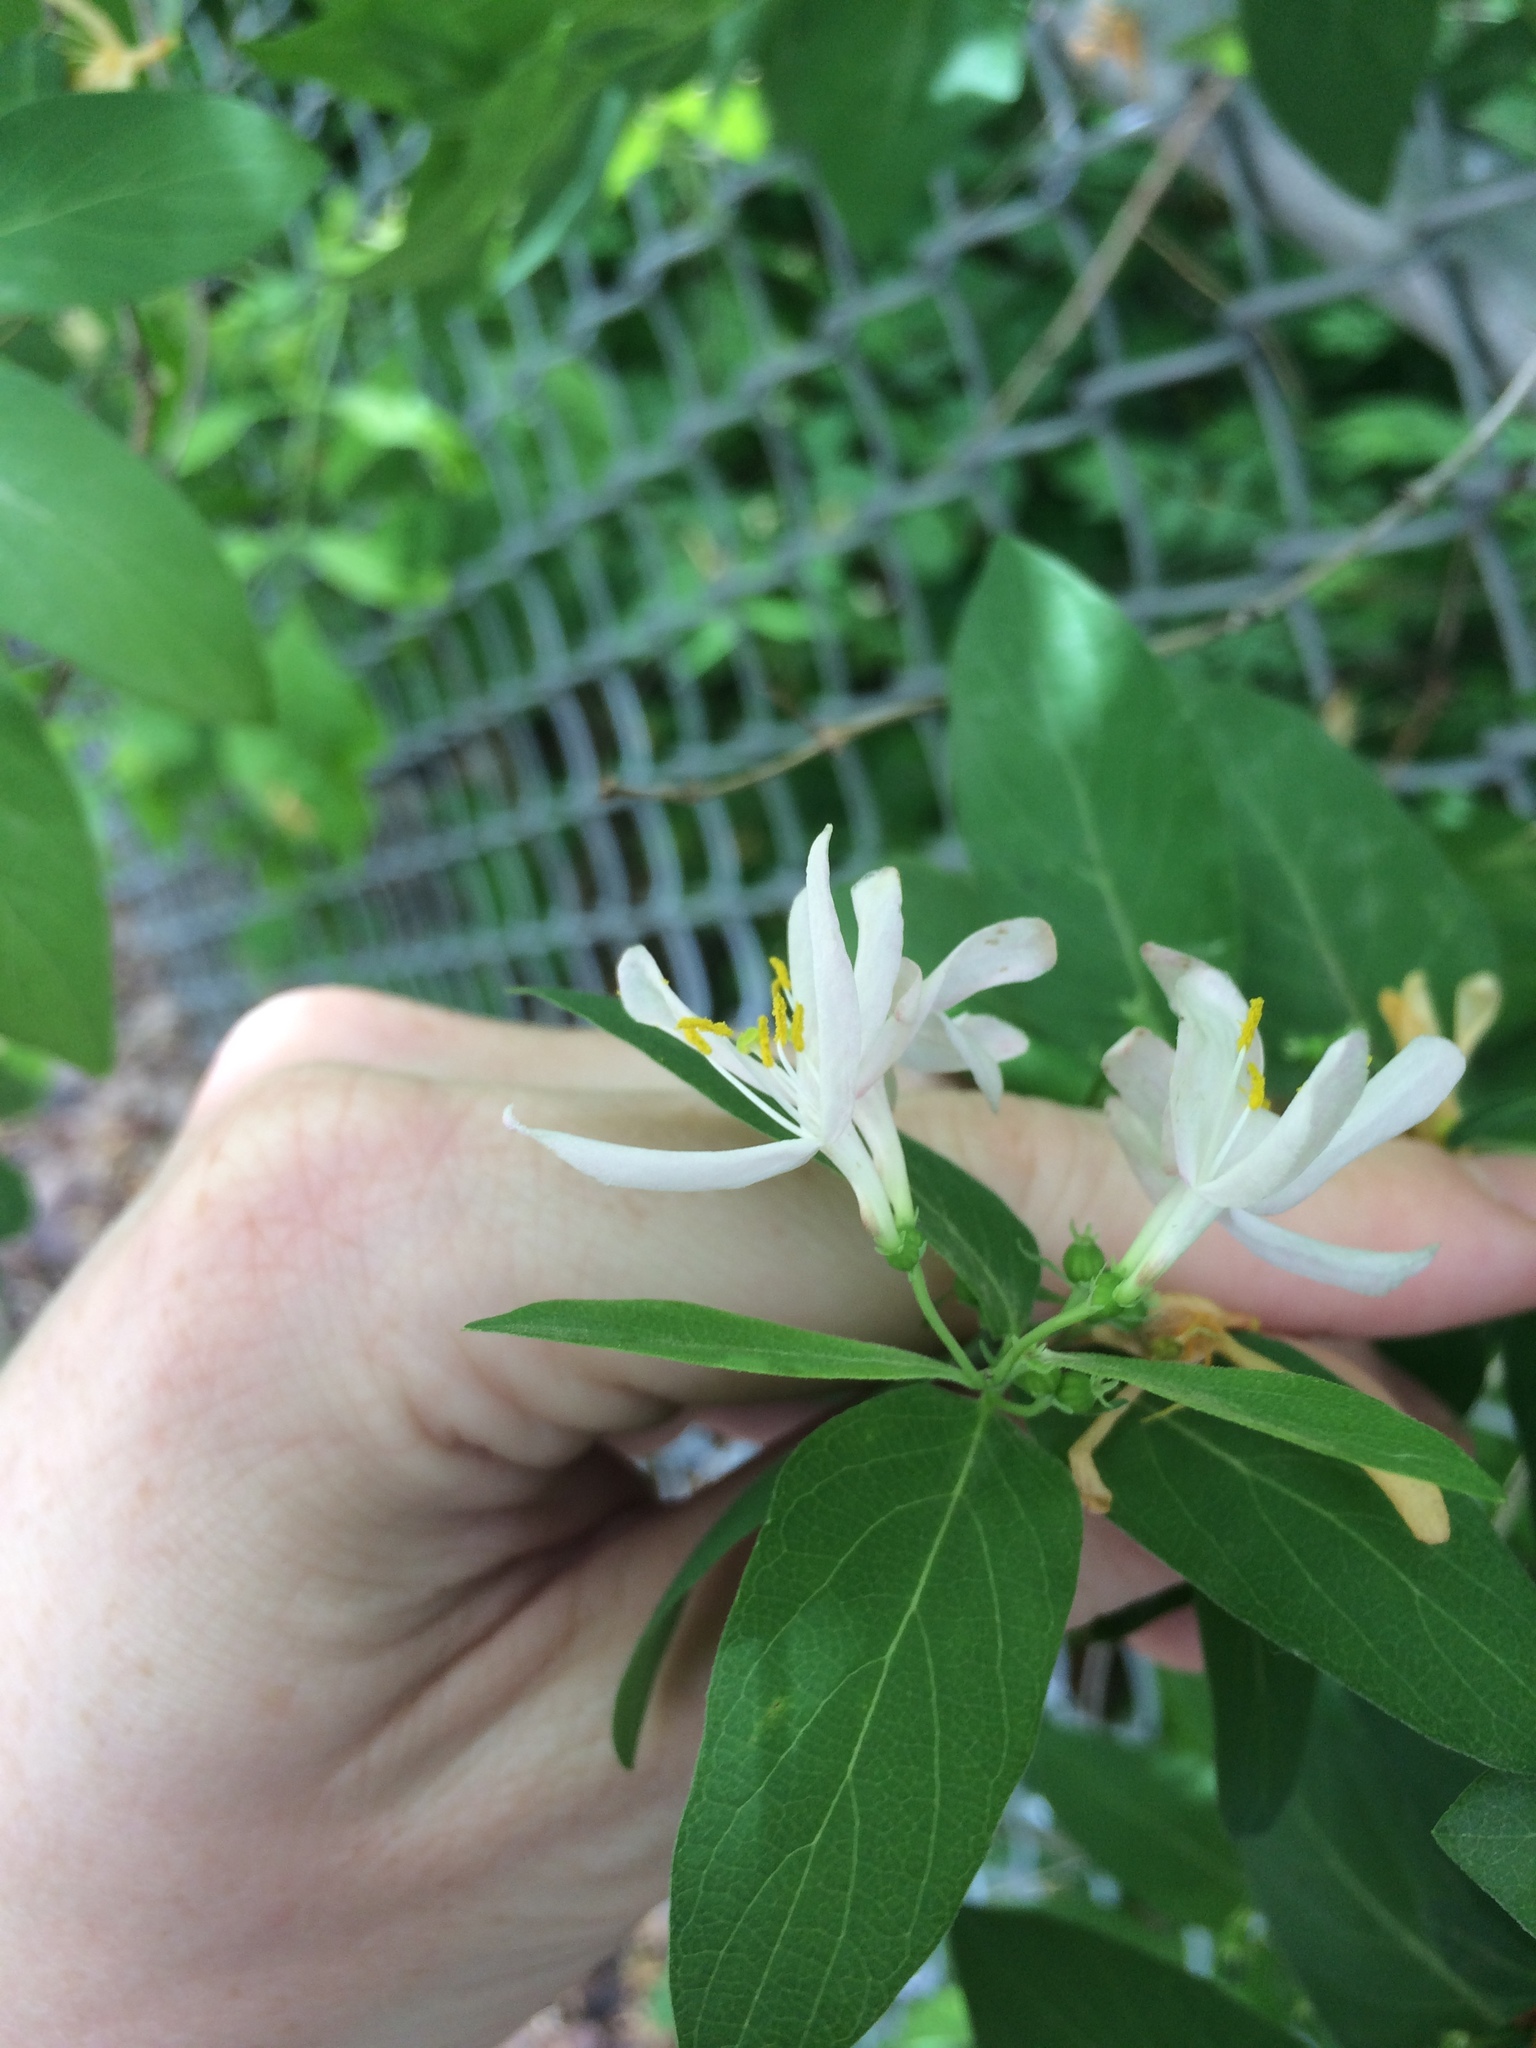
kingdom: Plantae
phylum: Tracheophyta
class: Magnoliopsida
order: Dipsacales
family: Caprifoliaceae
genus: Lonicera
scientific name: Lonicera bella
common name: Bell's honeysuckle
